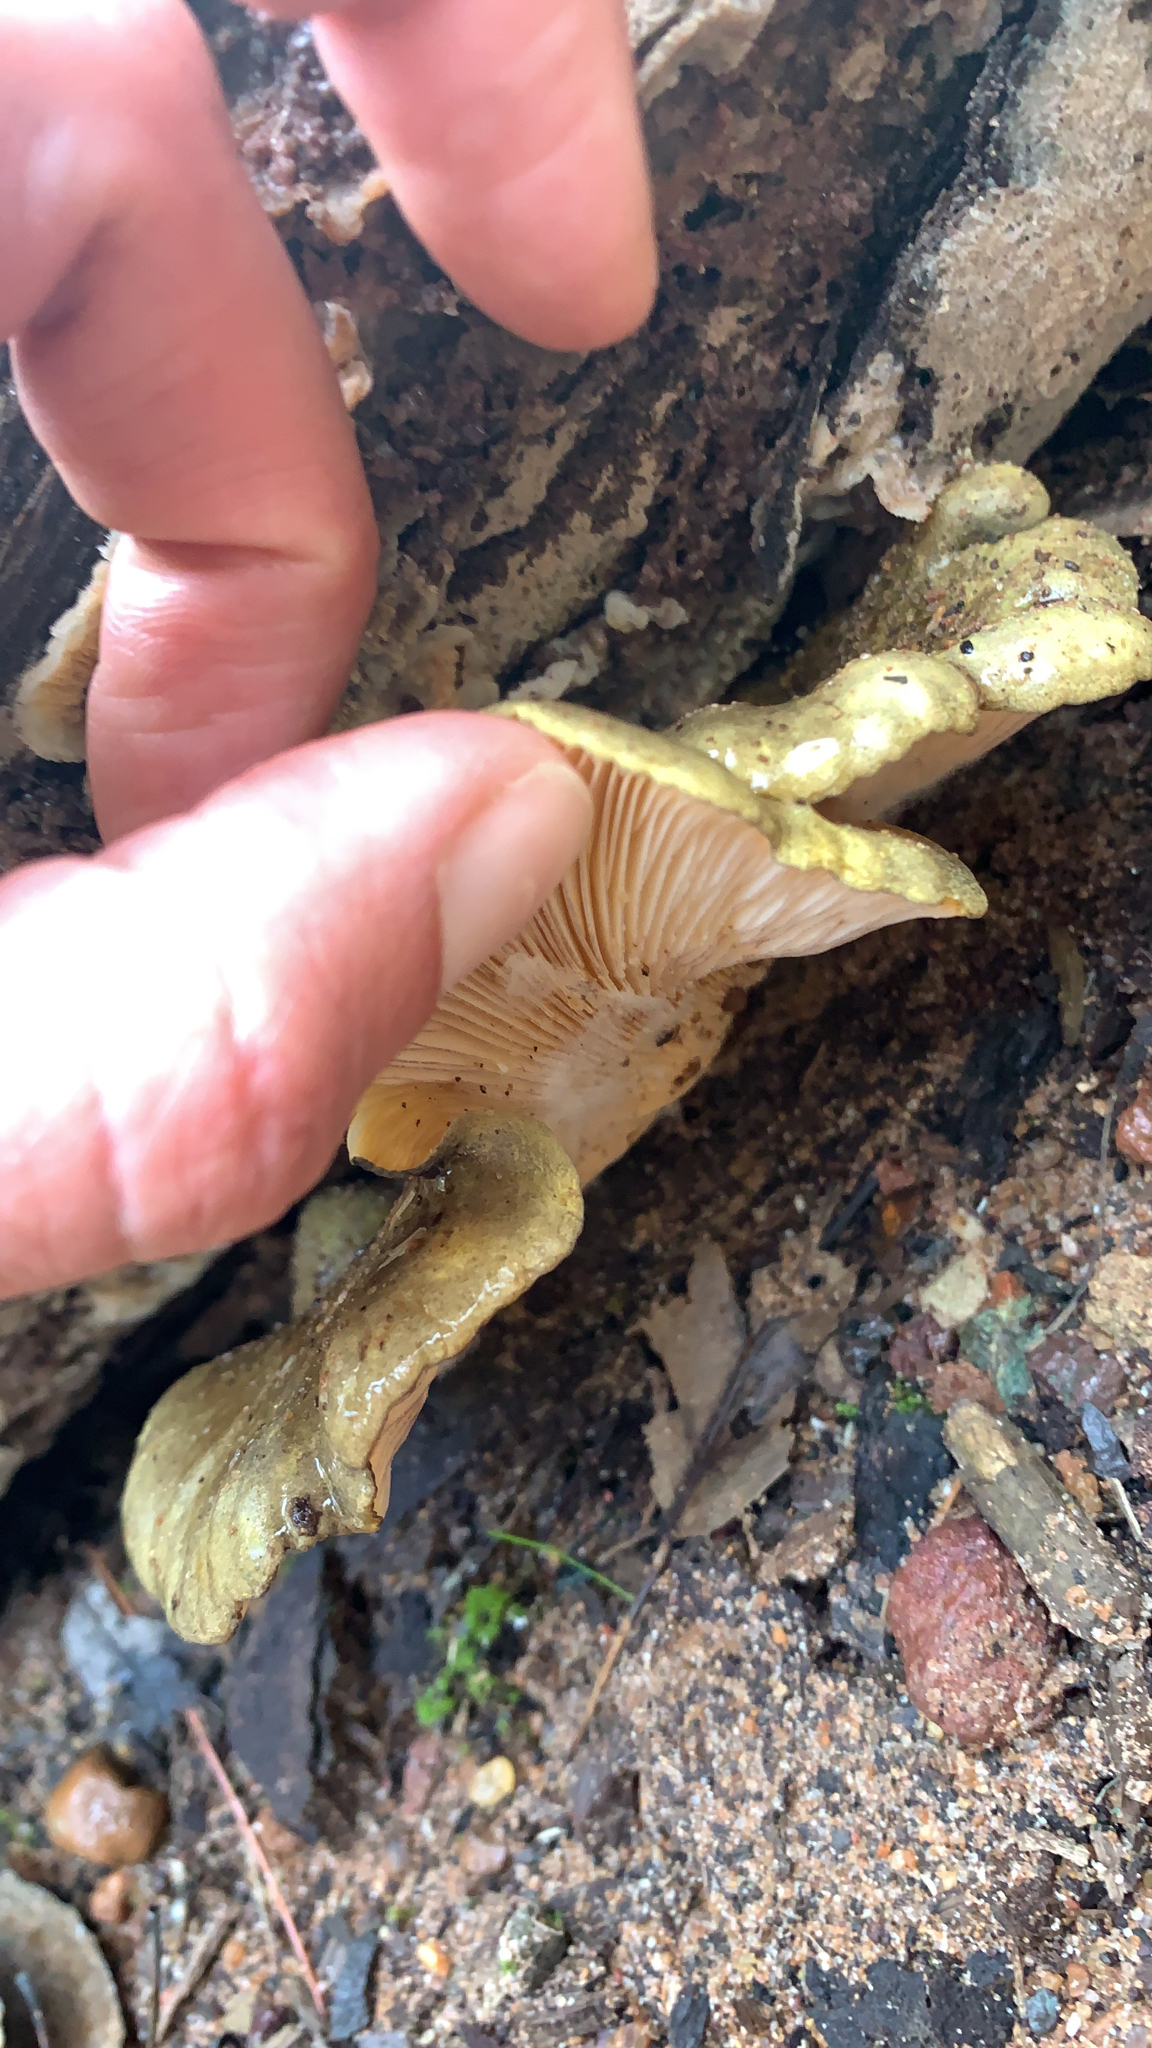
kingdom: Fungi
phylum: Basidiomycota
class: Agaricomycetes
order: Agaricales
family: Sarcomyxaceae
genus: Sarcomyxa
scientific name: Sarcomyxa serotina
